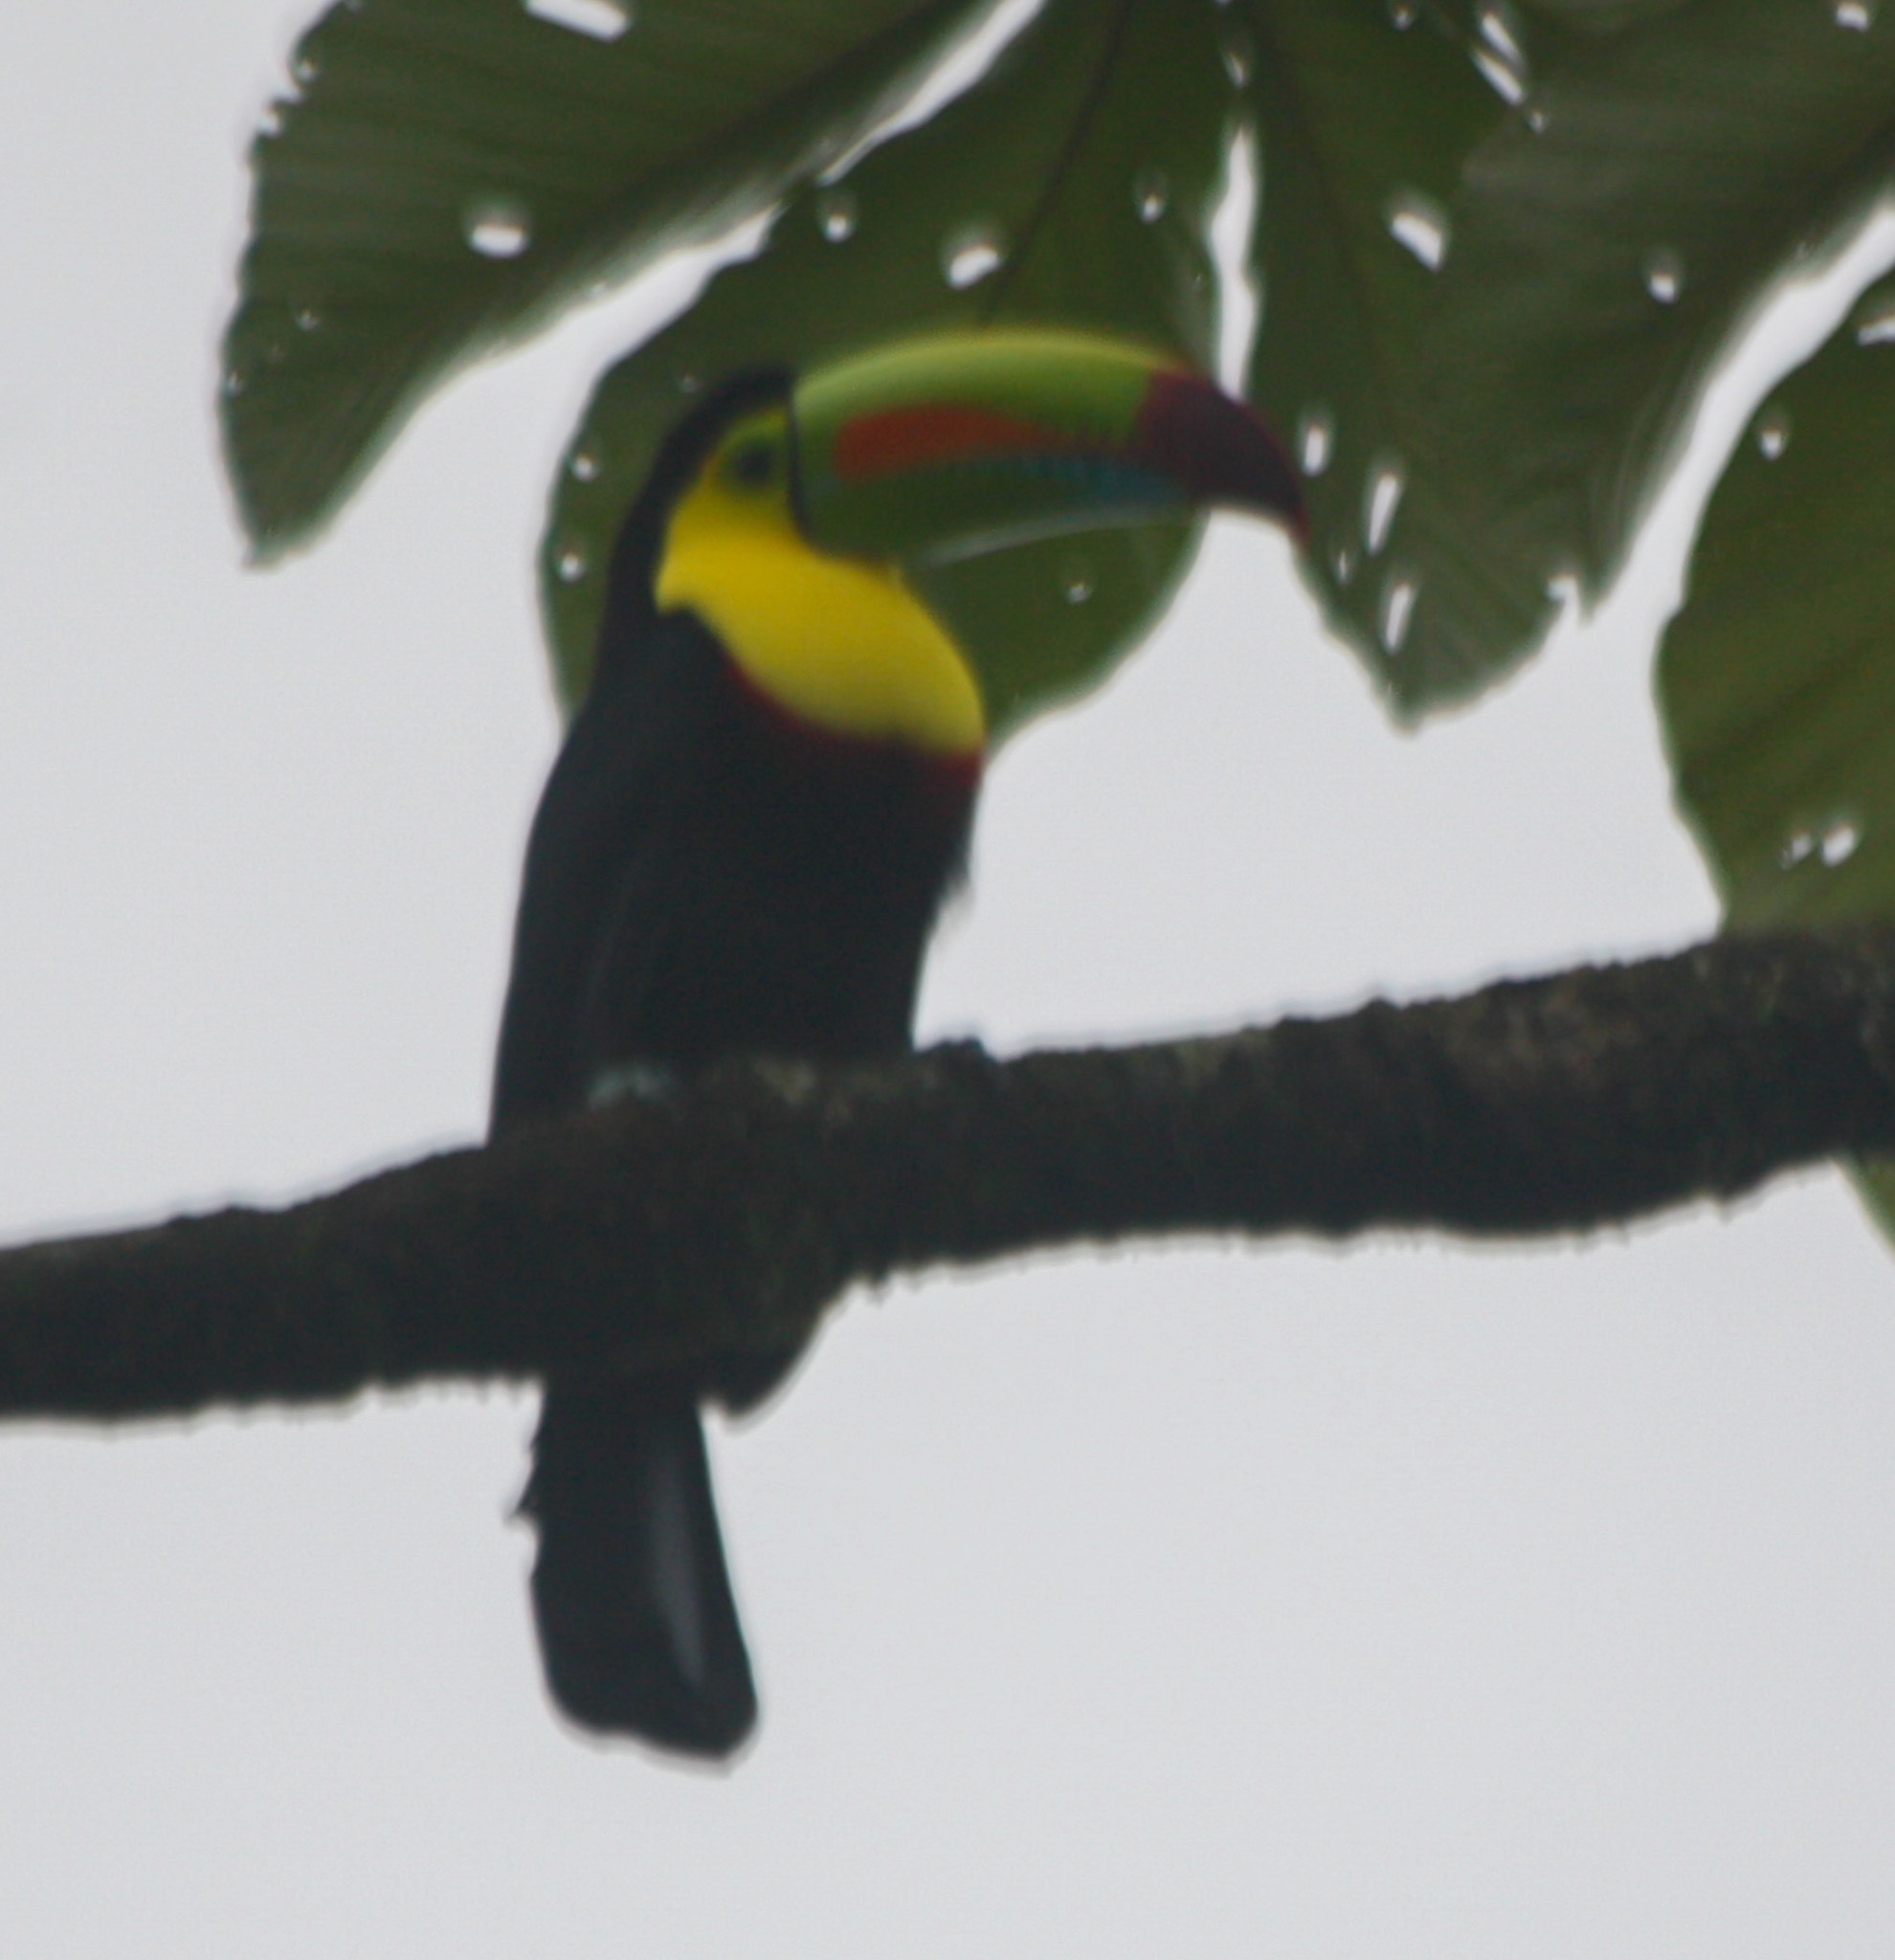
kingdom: Animalia
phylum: Chordata
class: Aves
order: Piciformes
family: Ramphastidae
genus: Ramphastos
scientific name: Ramphastos sulfuratus
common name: Keel-billed toucan
